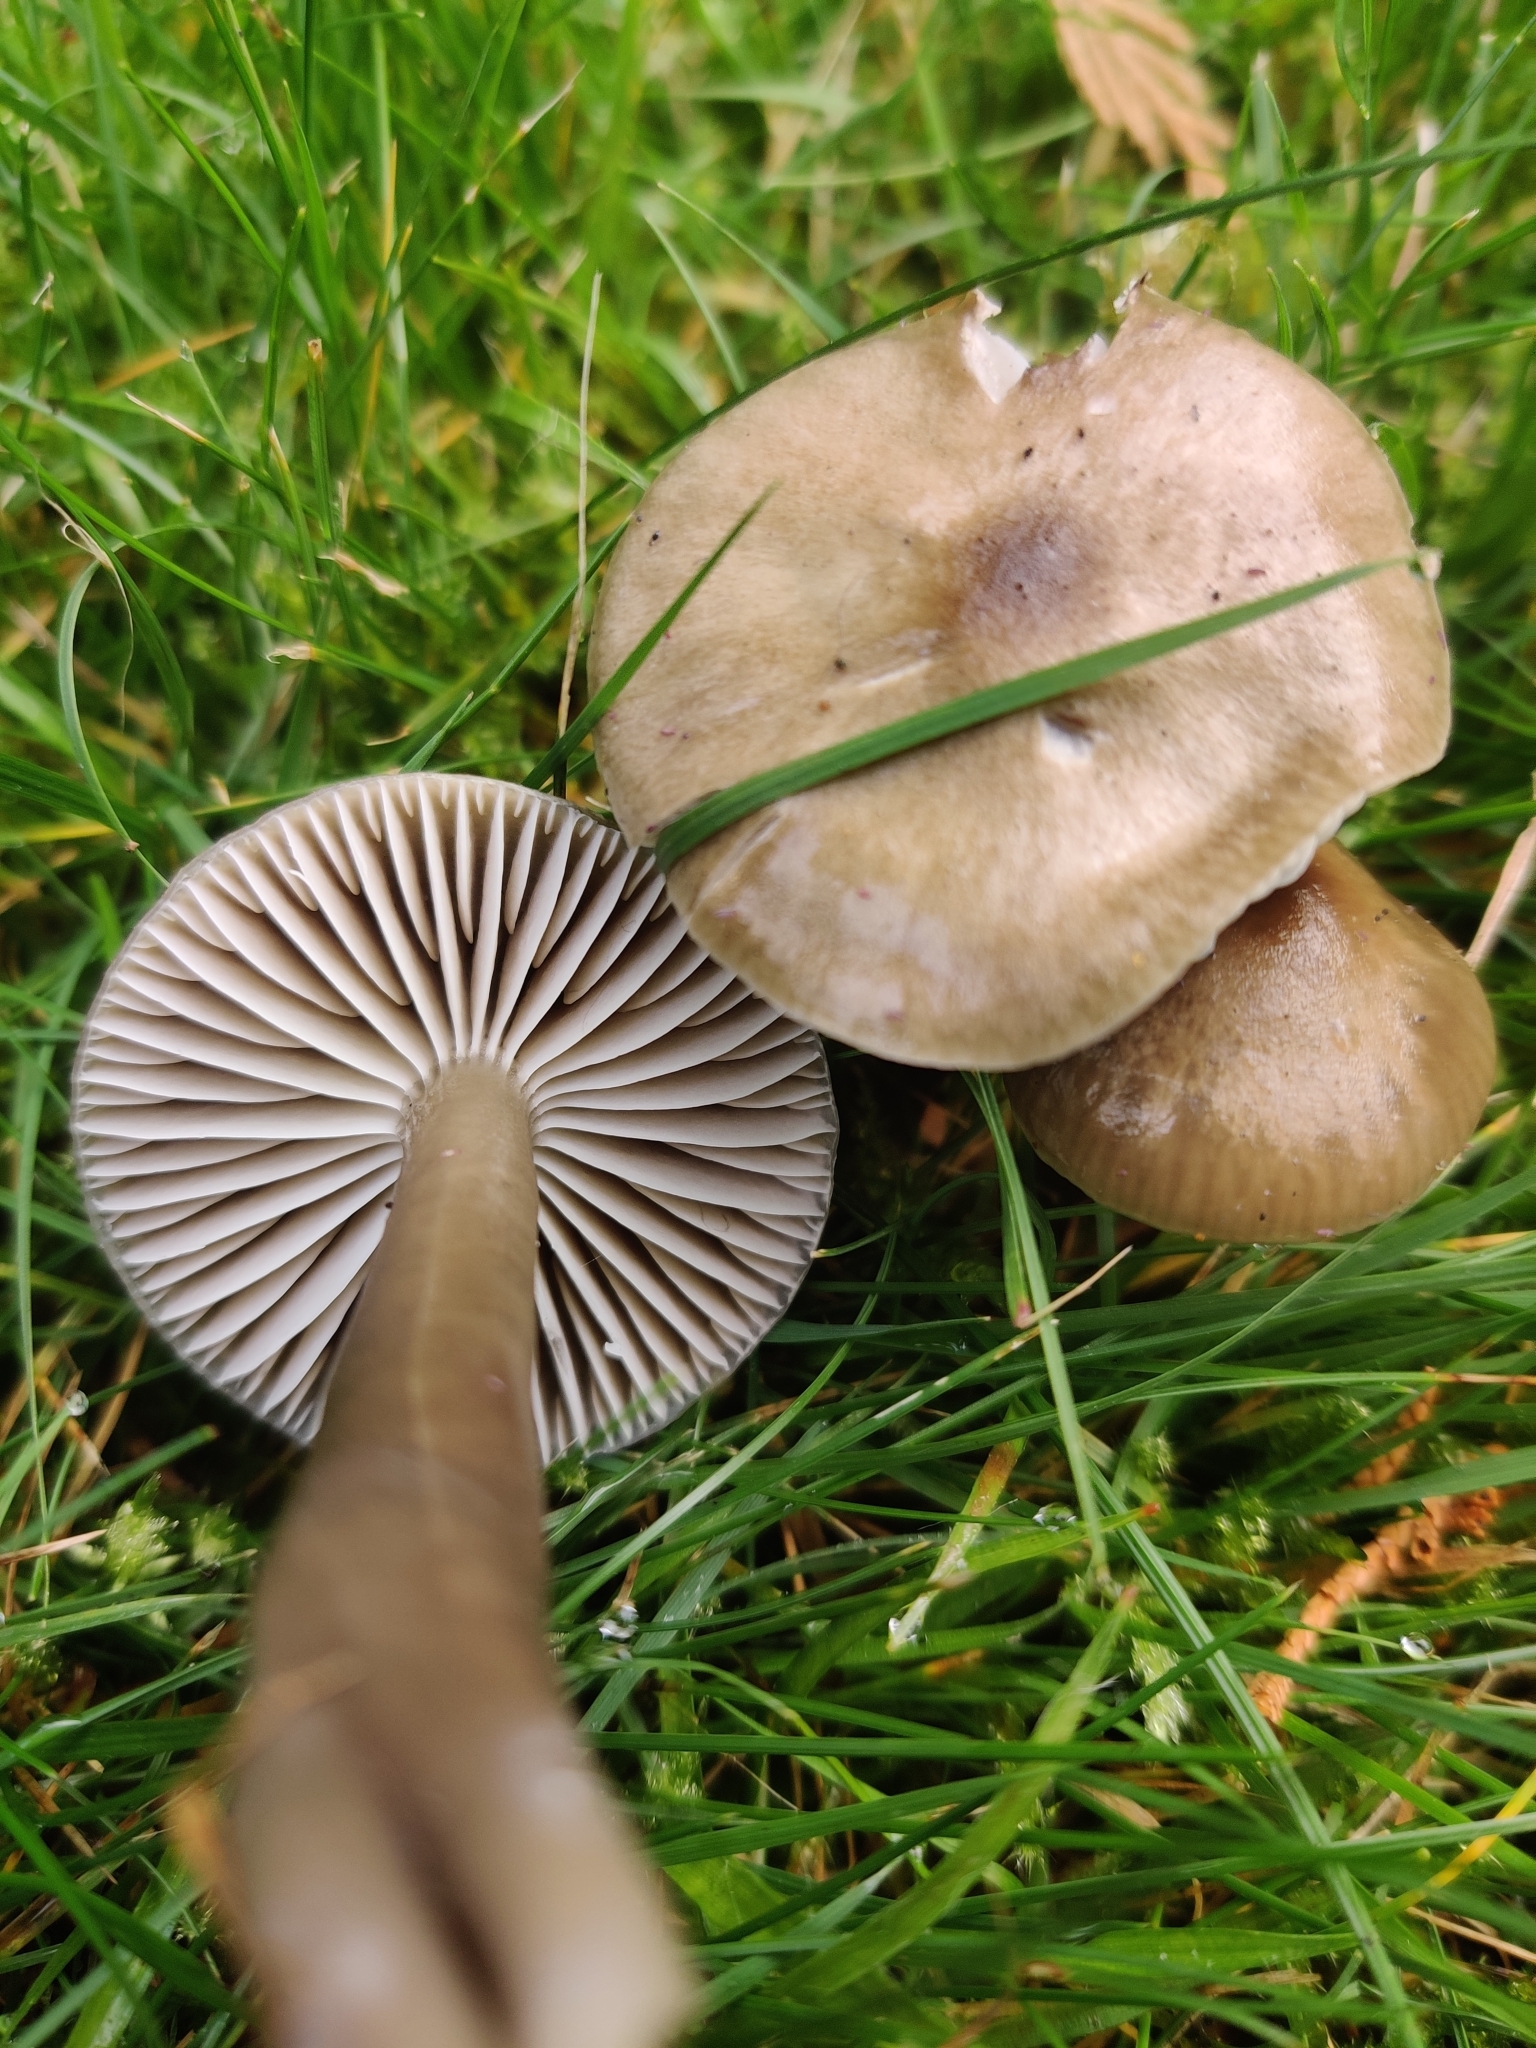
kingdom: Fungi
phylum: Basidiomycota
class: Agaricomycetes
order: Agaricales
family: Hygrophoraceae
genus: Gliophorus
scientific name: Gliophorus irrigatus
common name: Slimy waxcap
